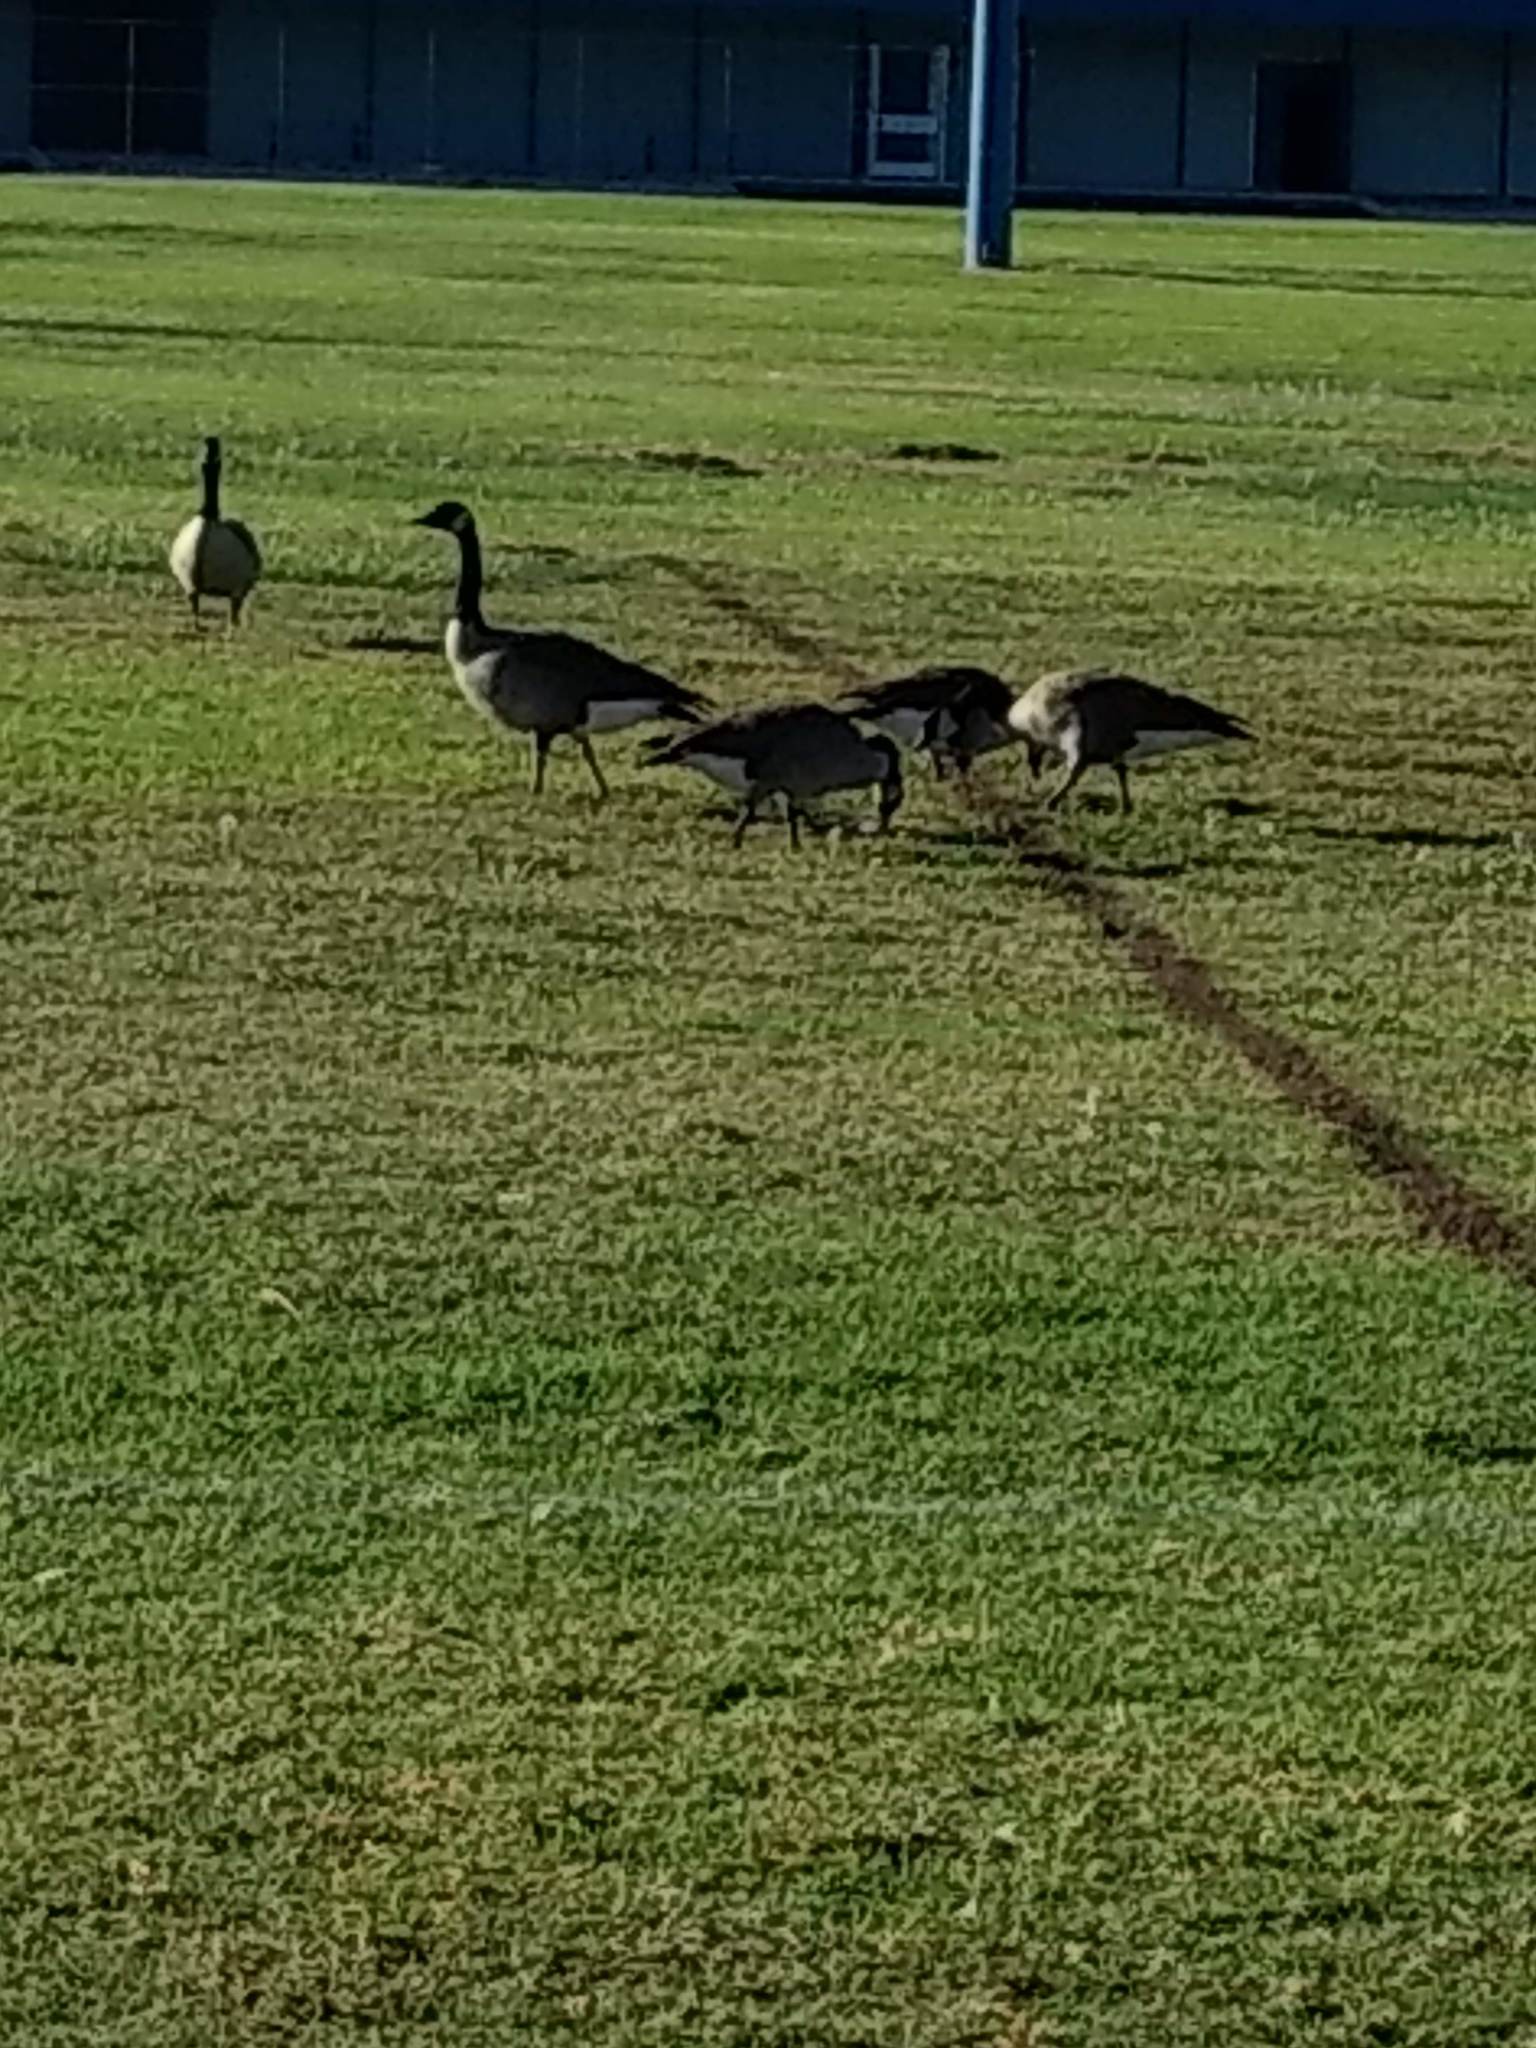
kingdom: Animalia
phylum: Chordata
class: Aves
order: Anseriformes
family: Anatidae
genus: Branta
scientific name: Branta canadensis
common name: Canada goose
